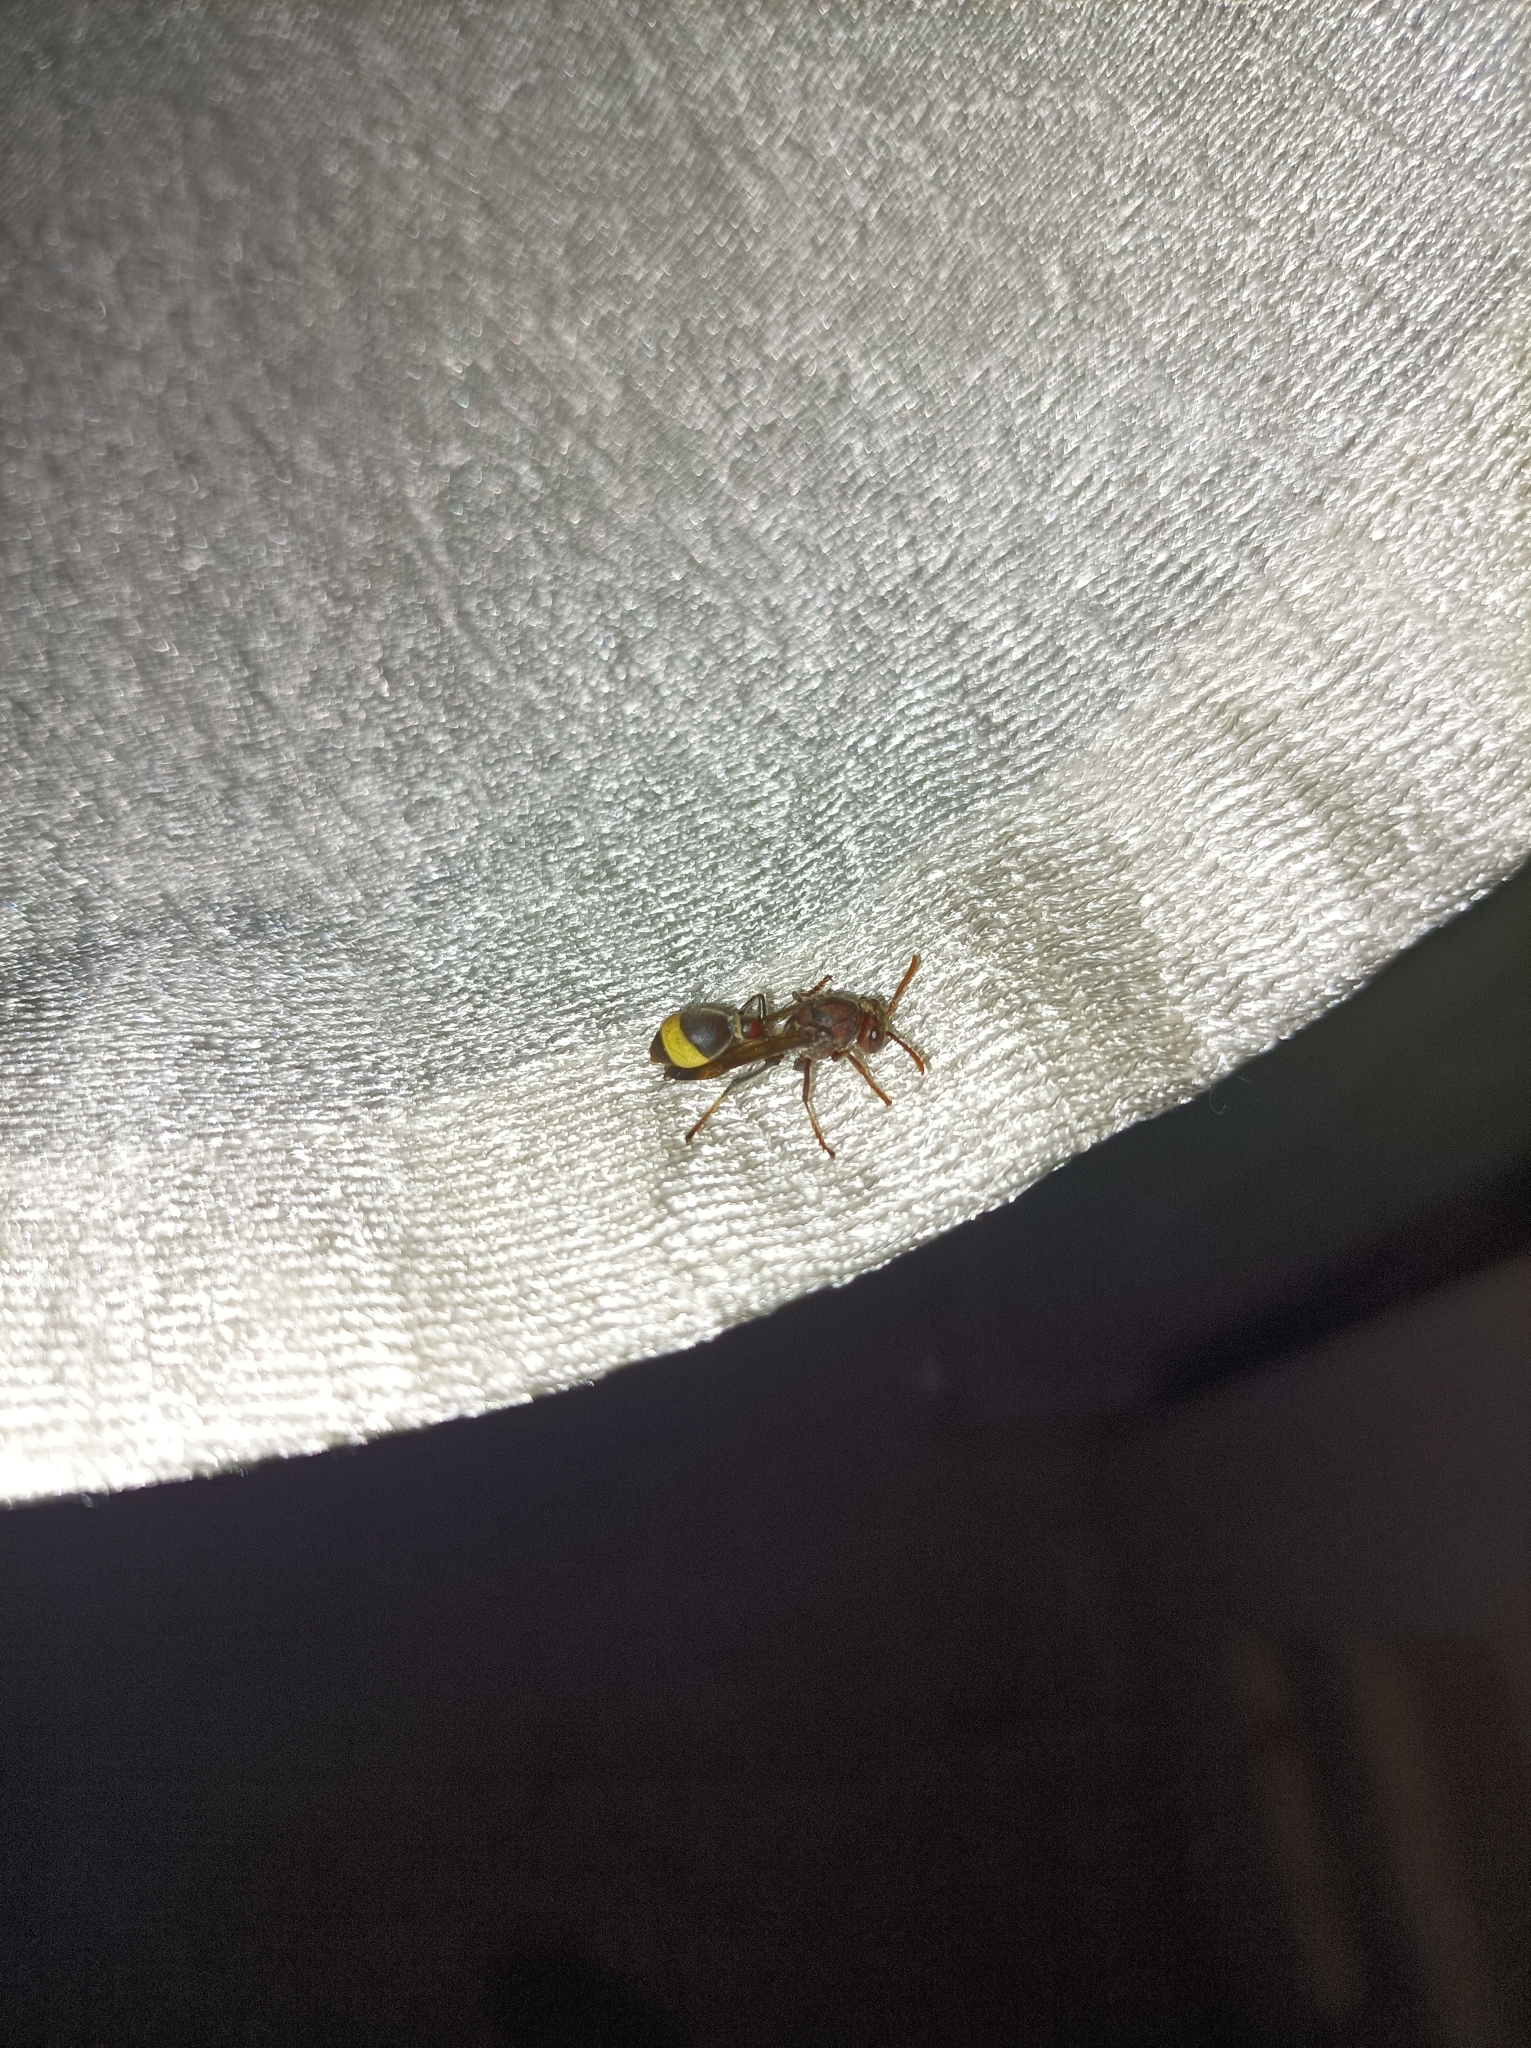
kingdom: Animalia
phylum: Arthropoda
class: Insecta
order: Hymenoptera
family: Vespidae
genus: Ropalidia
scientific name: Ropalidia
